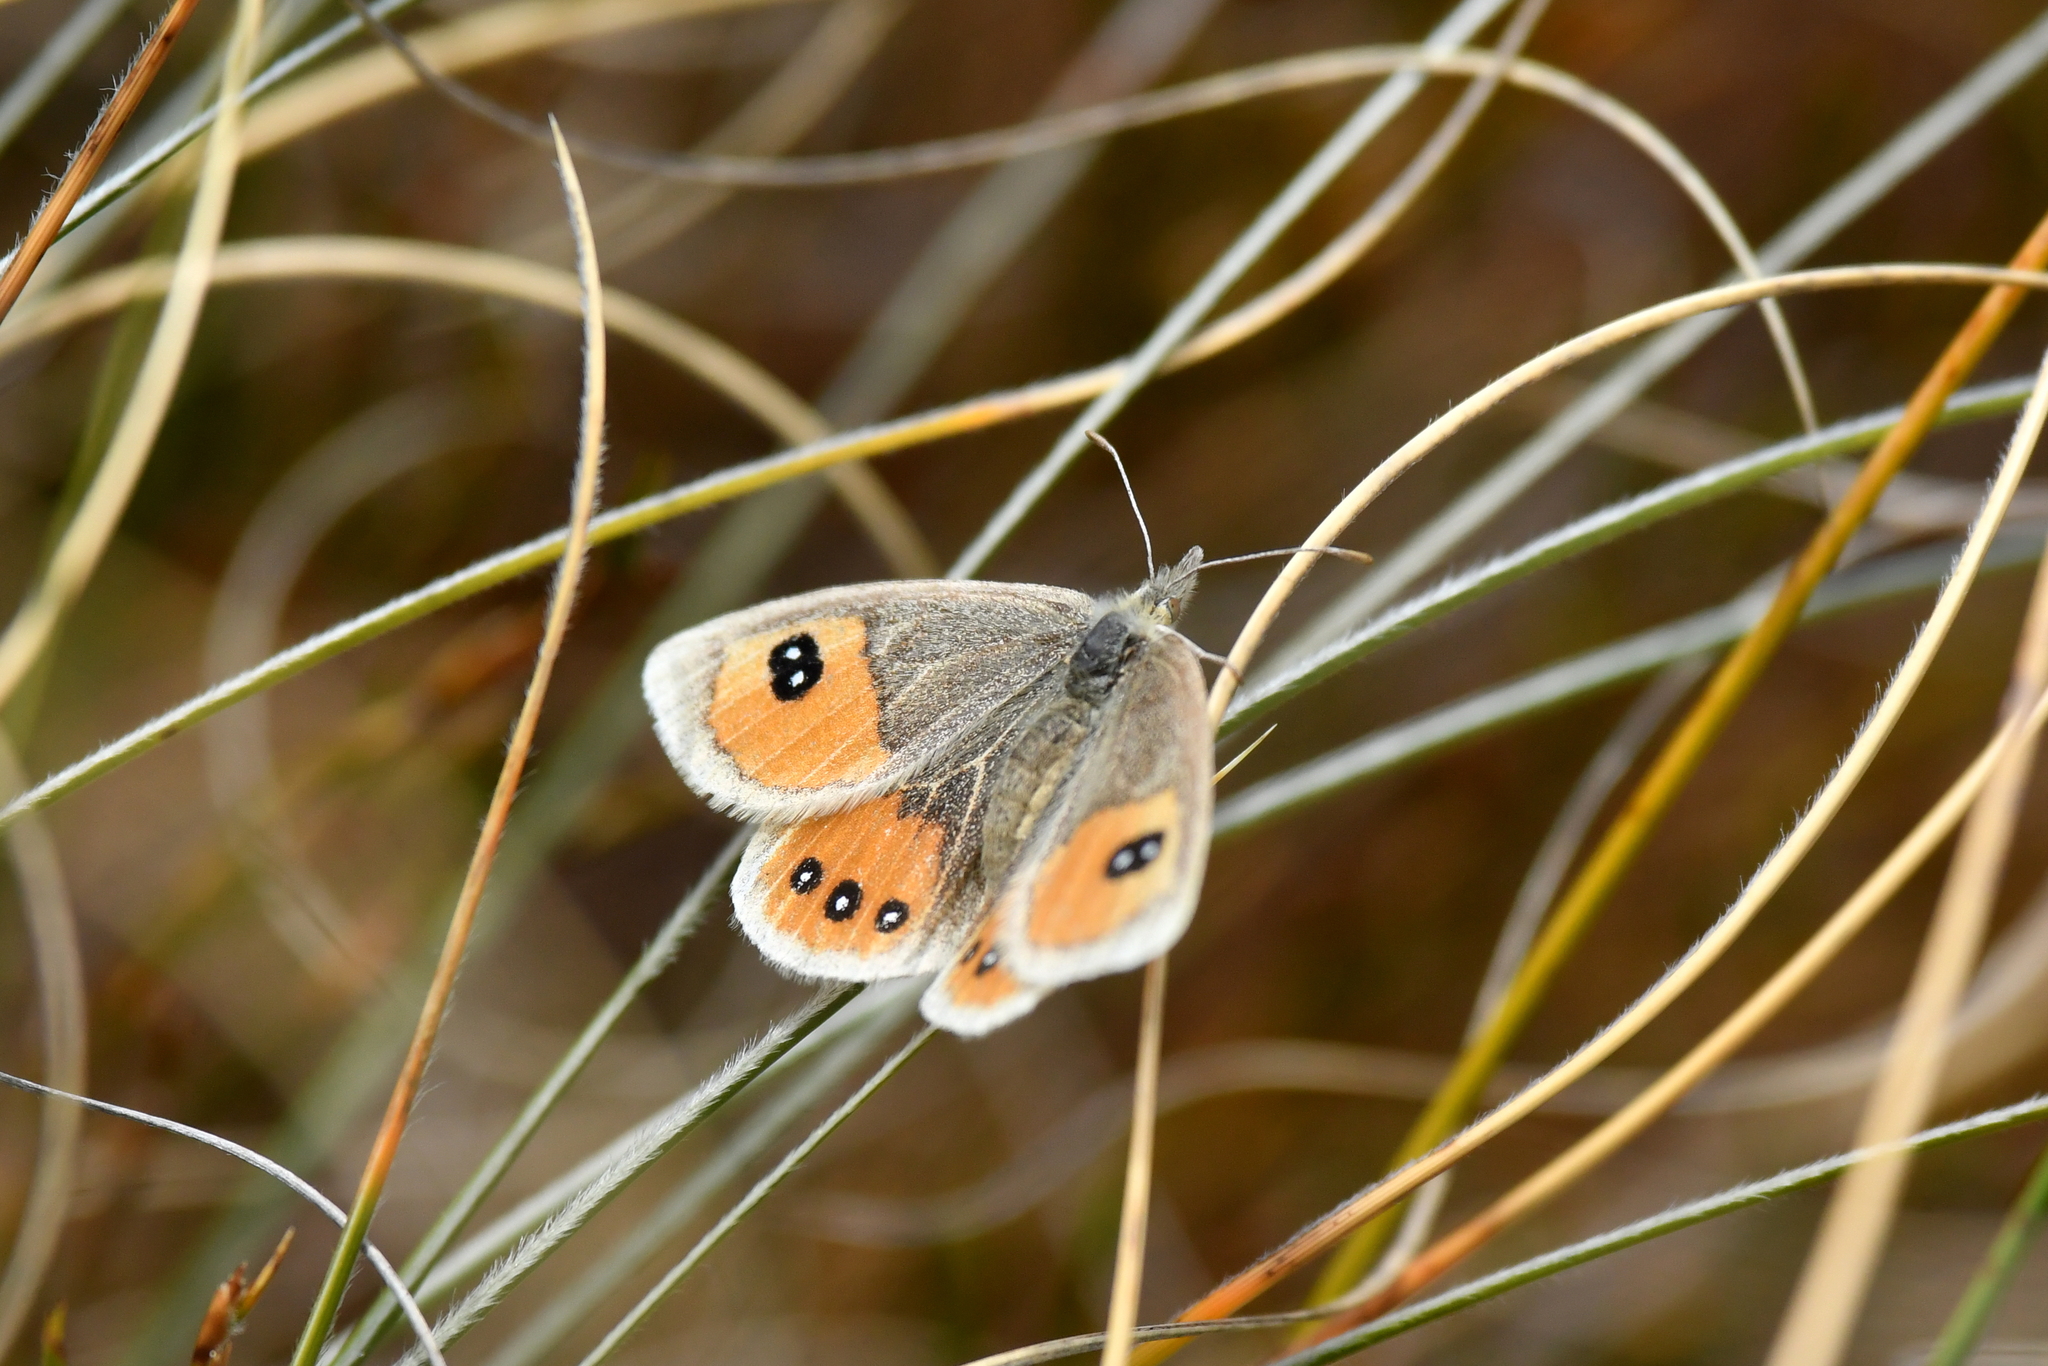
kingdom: Animalia
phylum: Arthropoda
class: Insecta
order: Lepidoptera
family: Nymphalidae
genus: Argyrophenga
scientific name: Argyrophenga antipodum
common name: Common tussock butterfly
